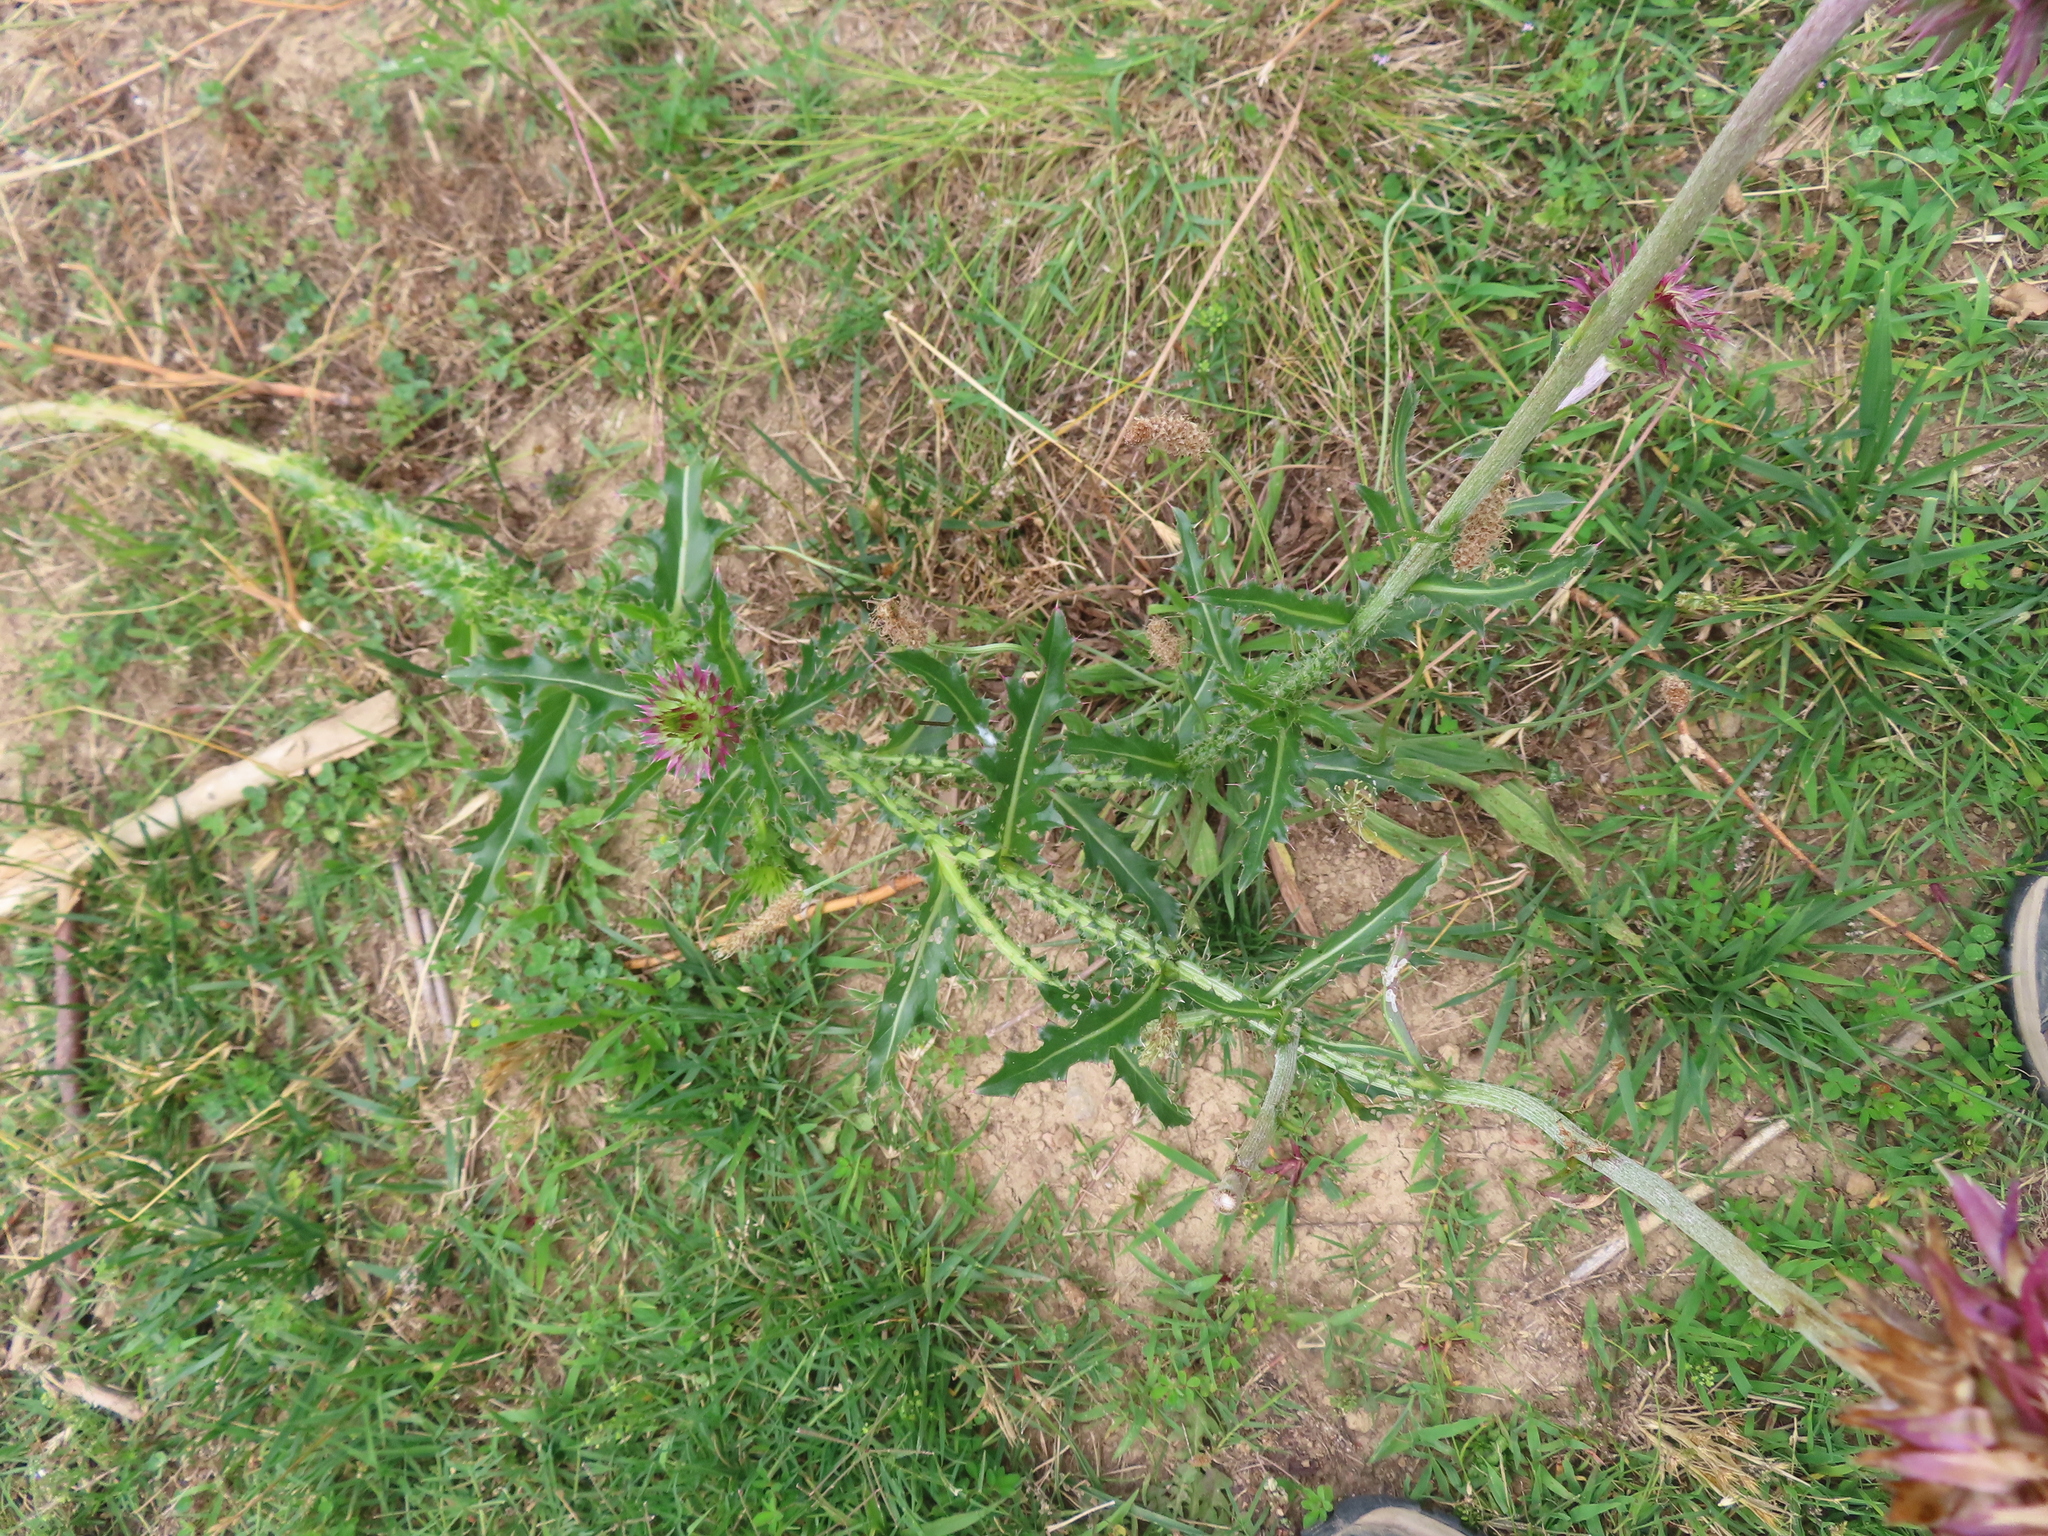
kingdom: Plantae
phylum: Tracheophyta
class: Magnoliopsida
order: Asterales
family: Asteraceae
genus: Carduus
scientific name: Carduus nutans
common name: Musk thistle
